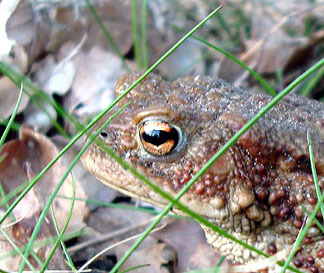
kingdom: Animalia
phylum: Chordata
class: Amphibia
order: Anura
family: Bufonidae
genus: Bufo
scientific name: Bufo bufo
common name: Common toad
